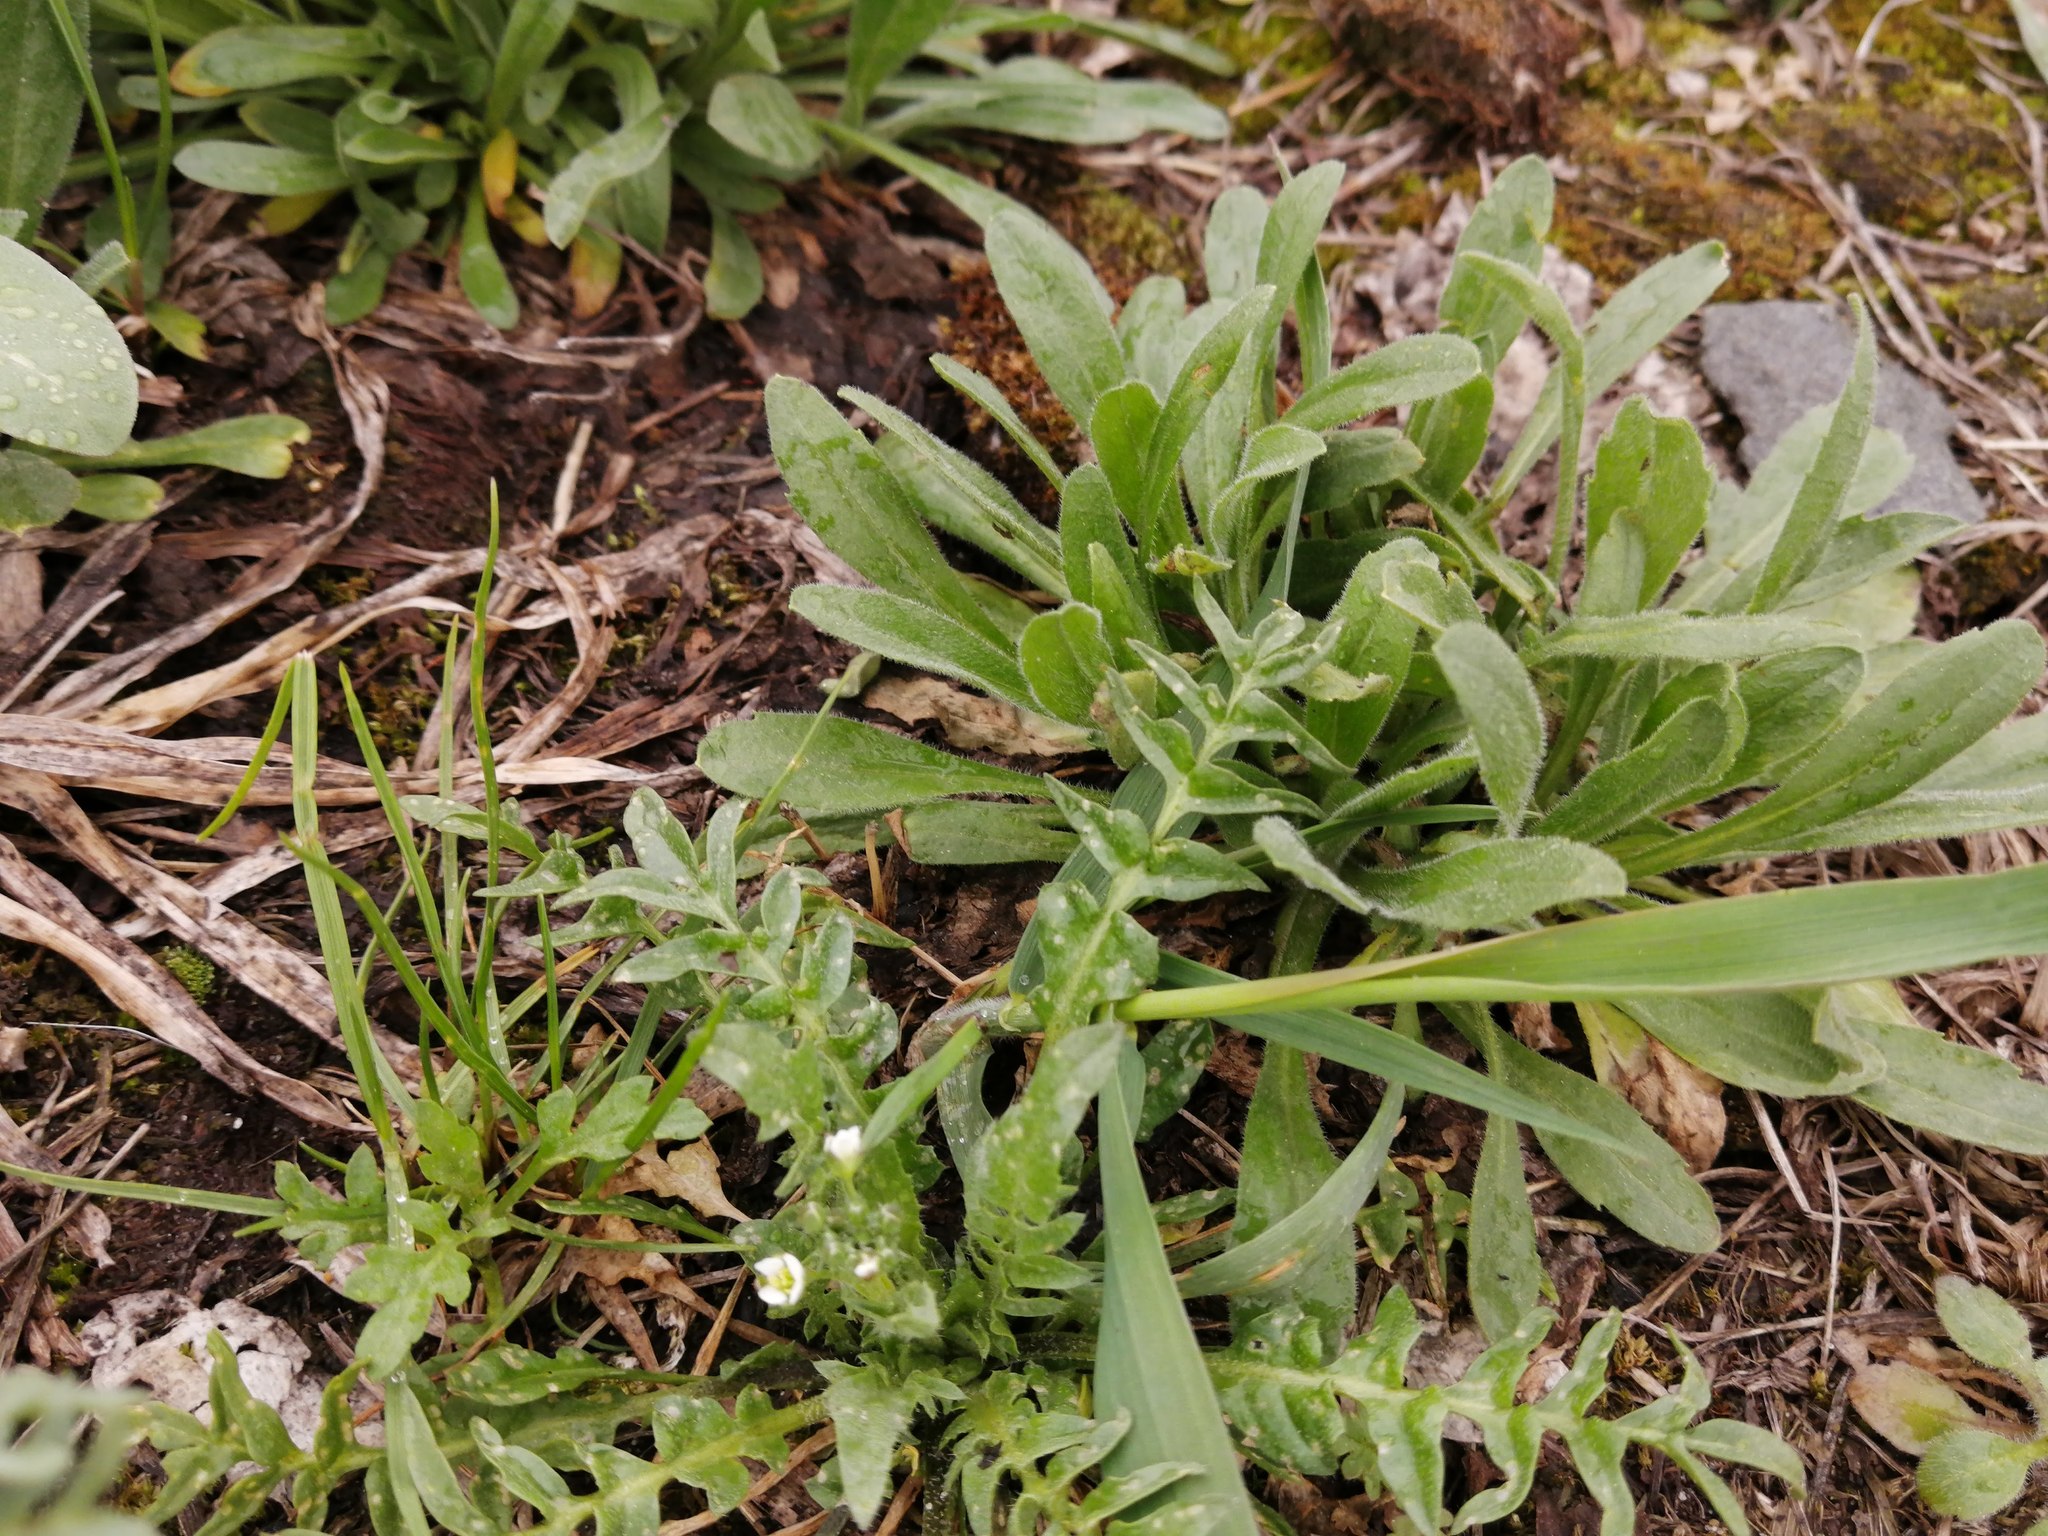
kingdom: Plantae
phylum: Tracheophyta
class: Magnoliopsida
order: Brassicales
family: Brassicaceae
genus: Capsella
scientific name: Capsella bursa-pastoris
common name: Shepherd's purse
